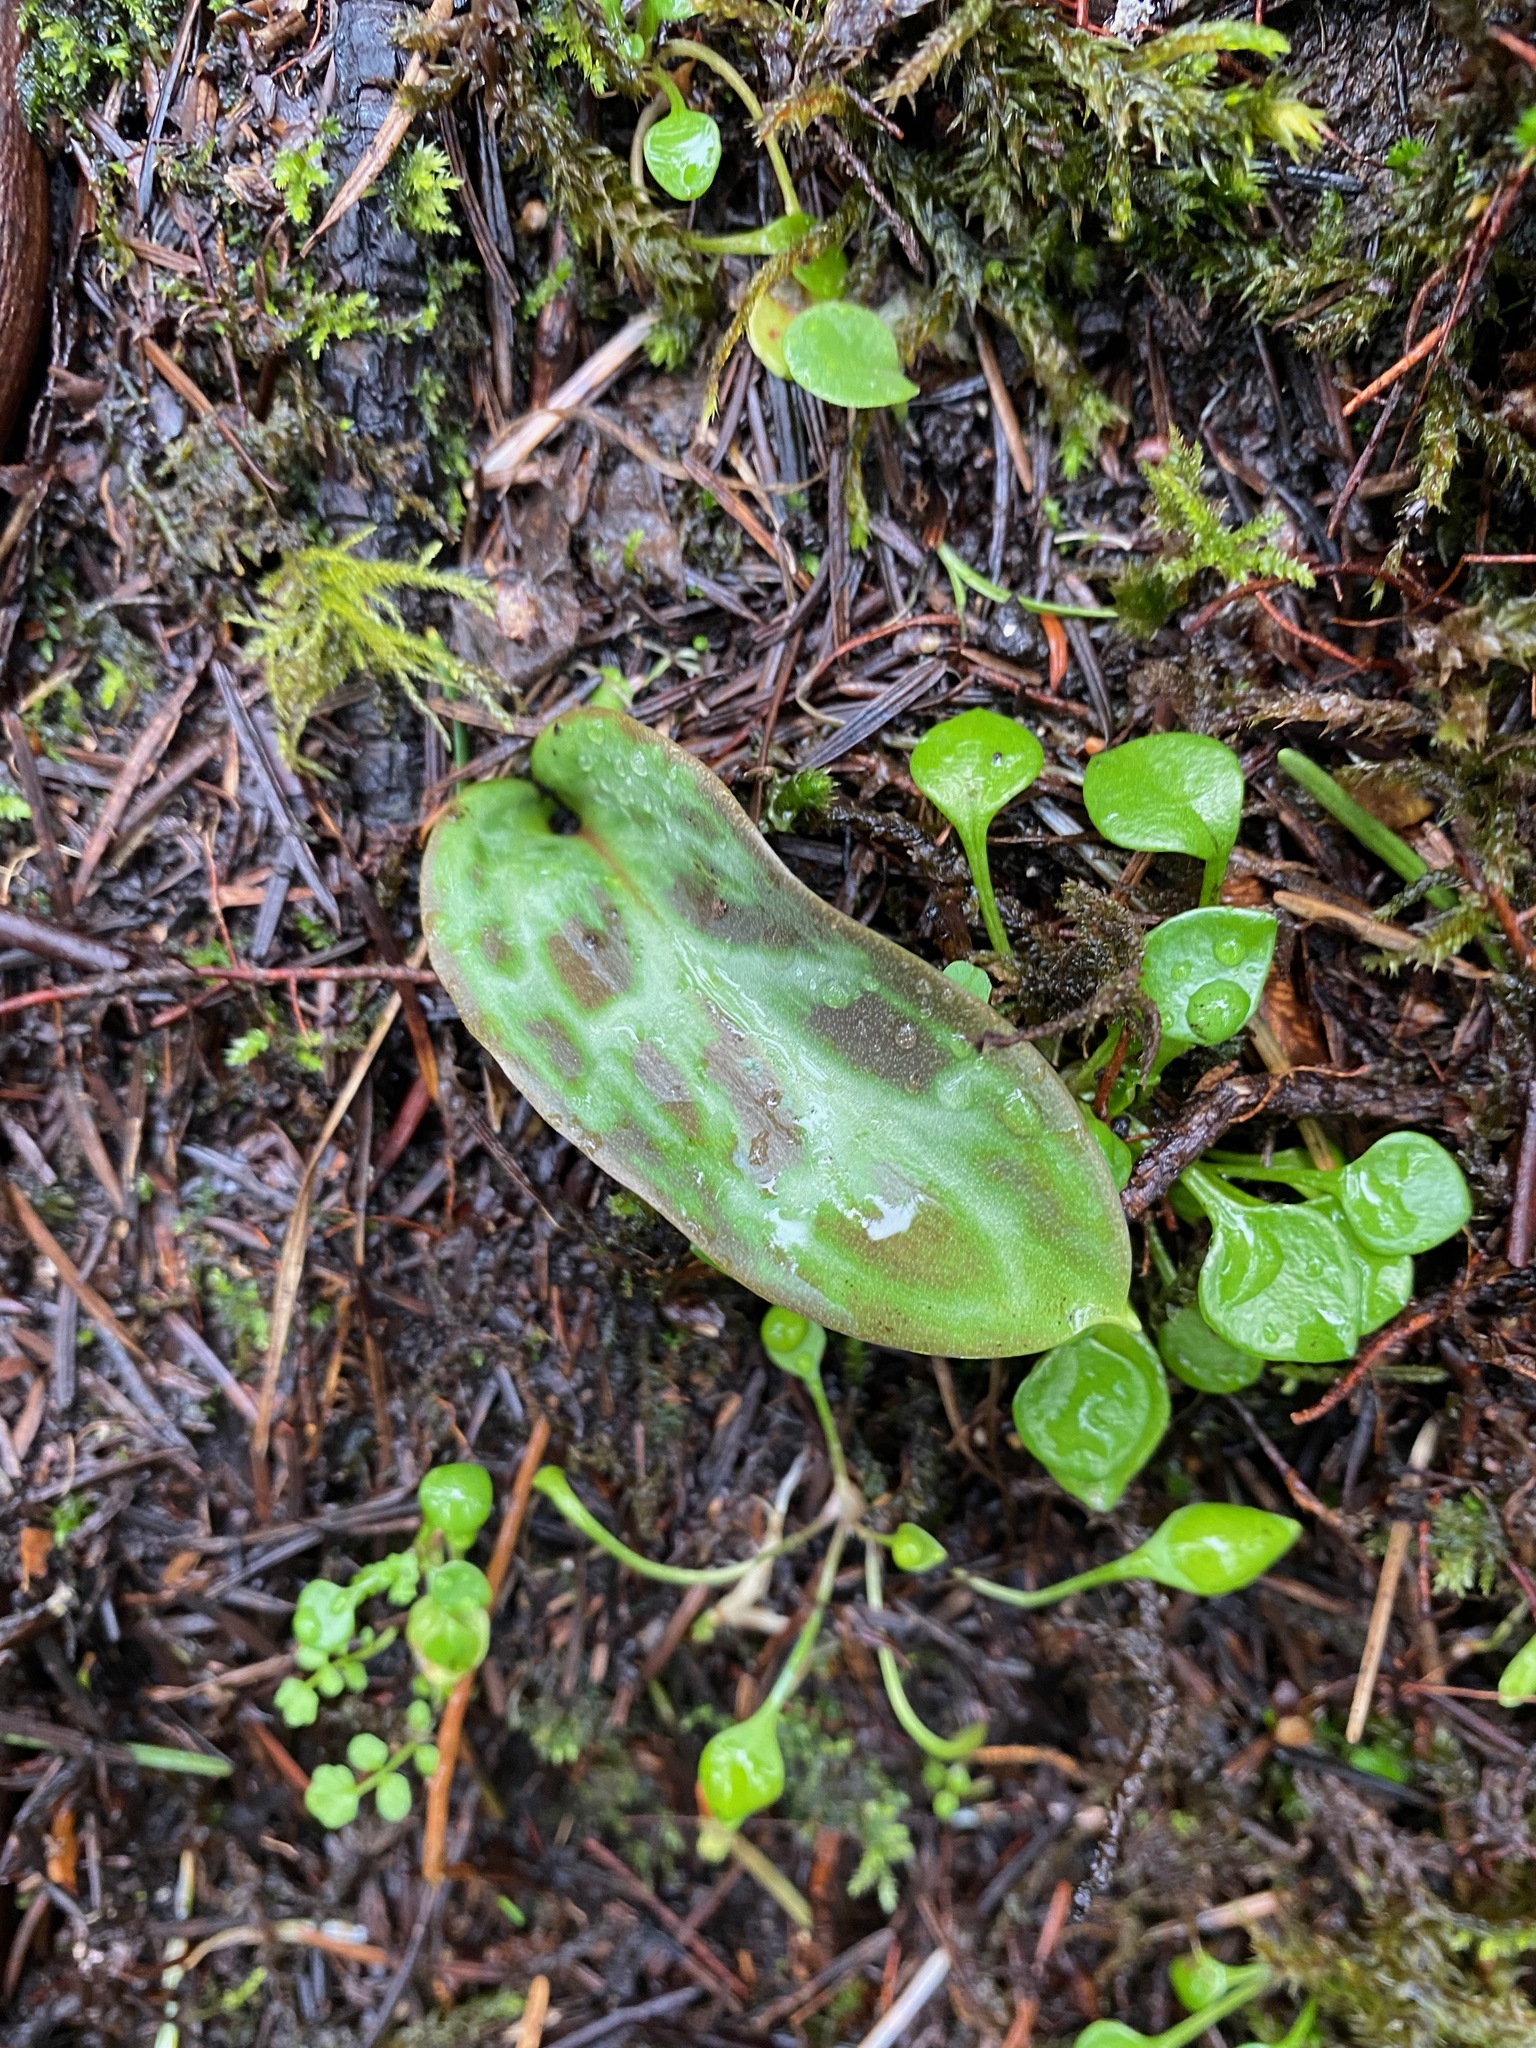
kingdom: Plantae
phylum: Tracheophyta
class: Liliopsida
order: Liliales
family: Liliaceae
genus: Erythronium
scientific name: Erythronium oregonum
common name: Giant adder's-tongue
